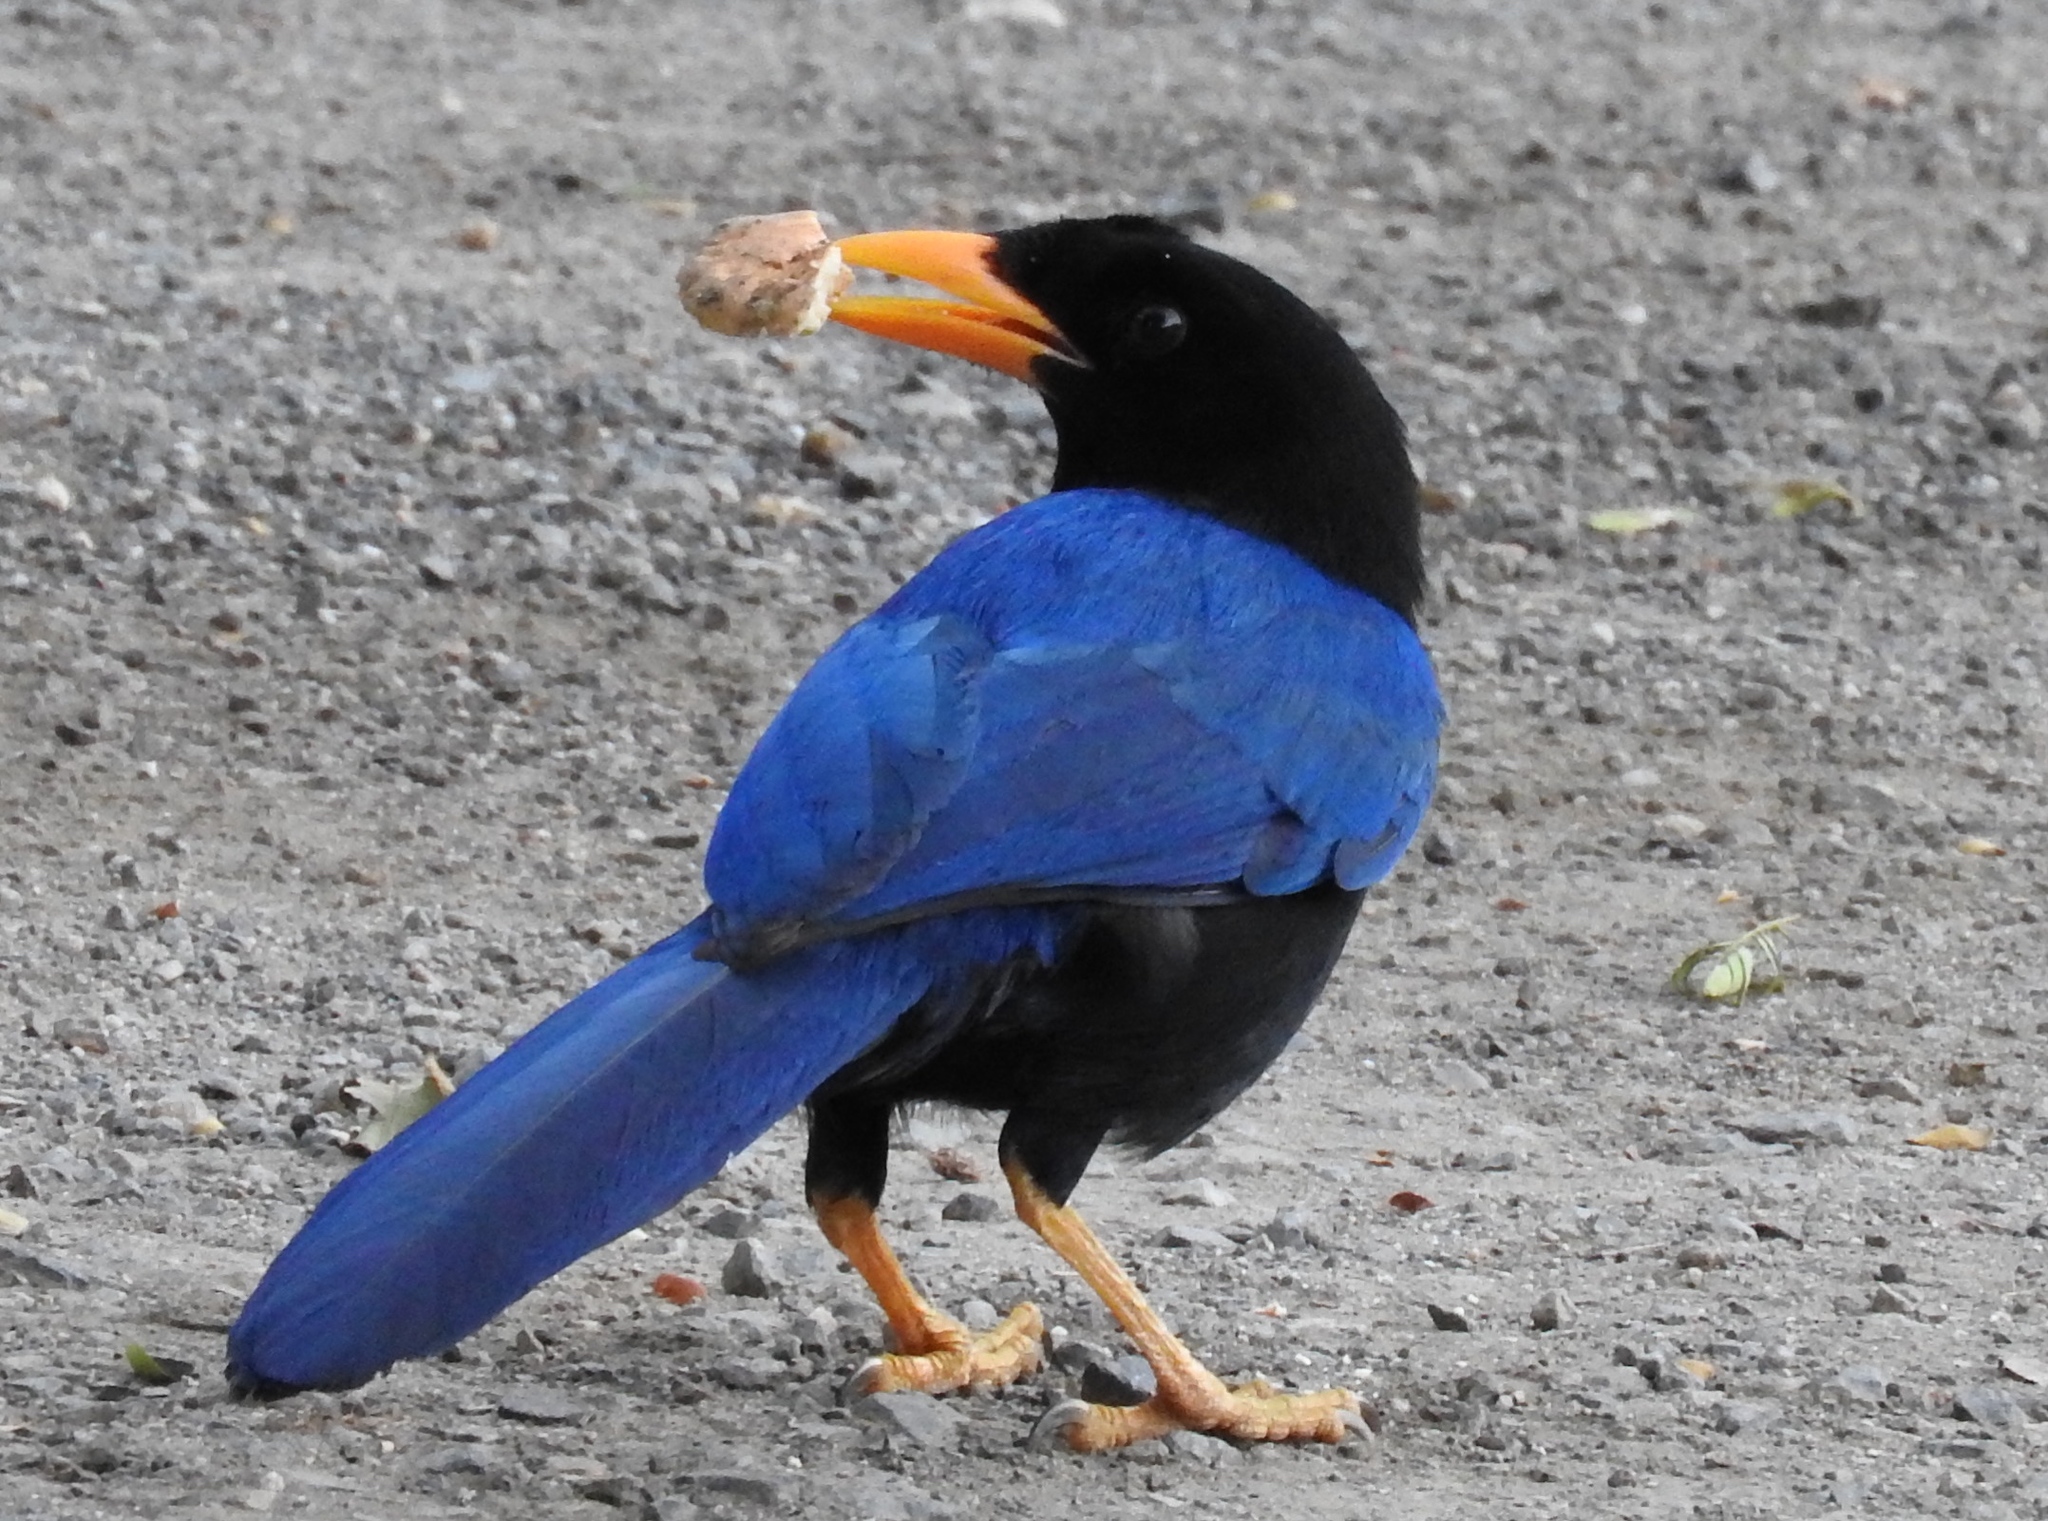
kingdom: Animalia
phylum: Chordata
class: Aves
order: Passeriformes
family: Corvidae
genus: Cyanocorax
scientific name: Cyanocorax beecheii
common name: Purplish-backed jay
